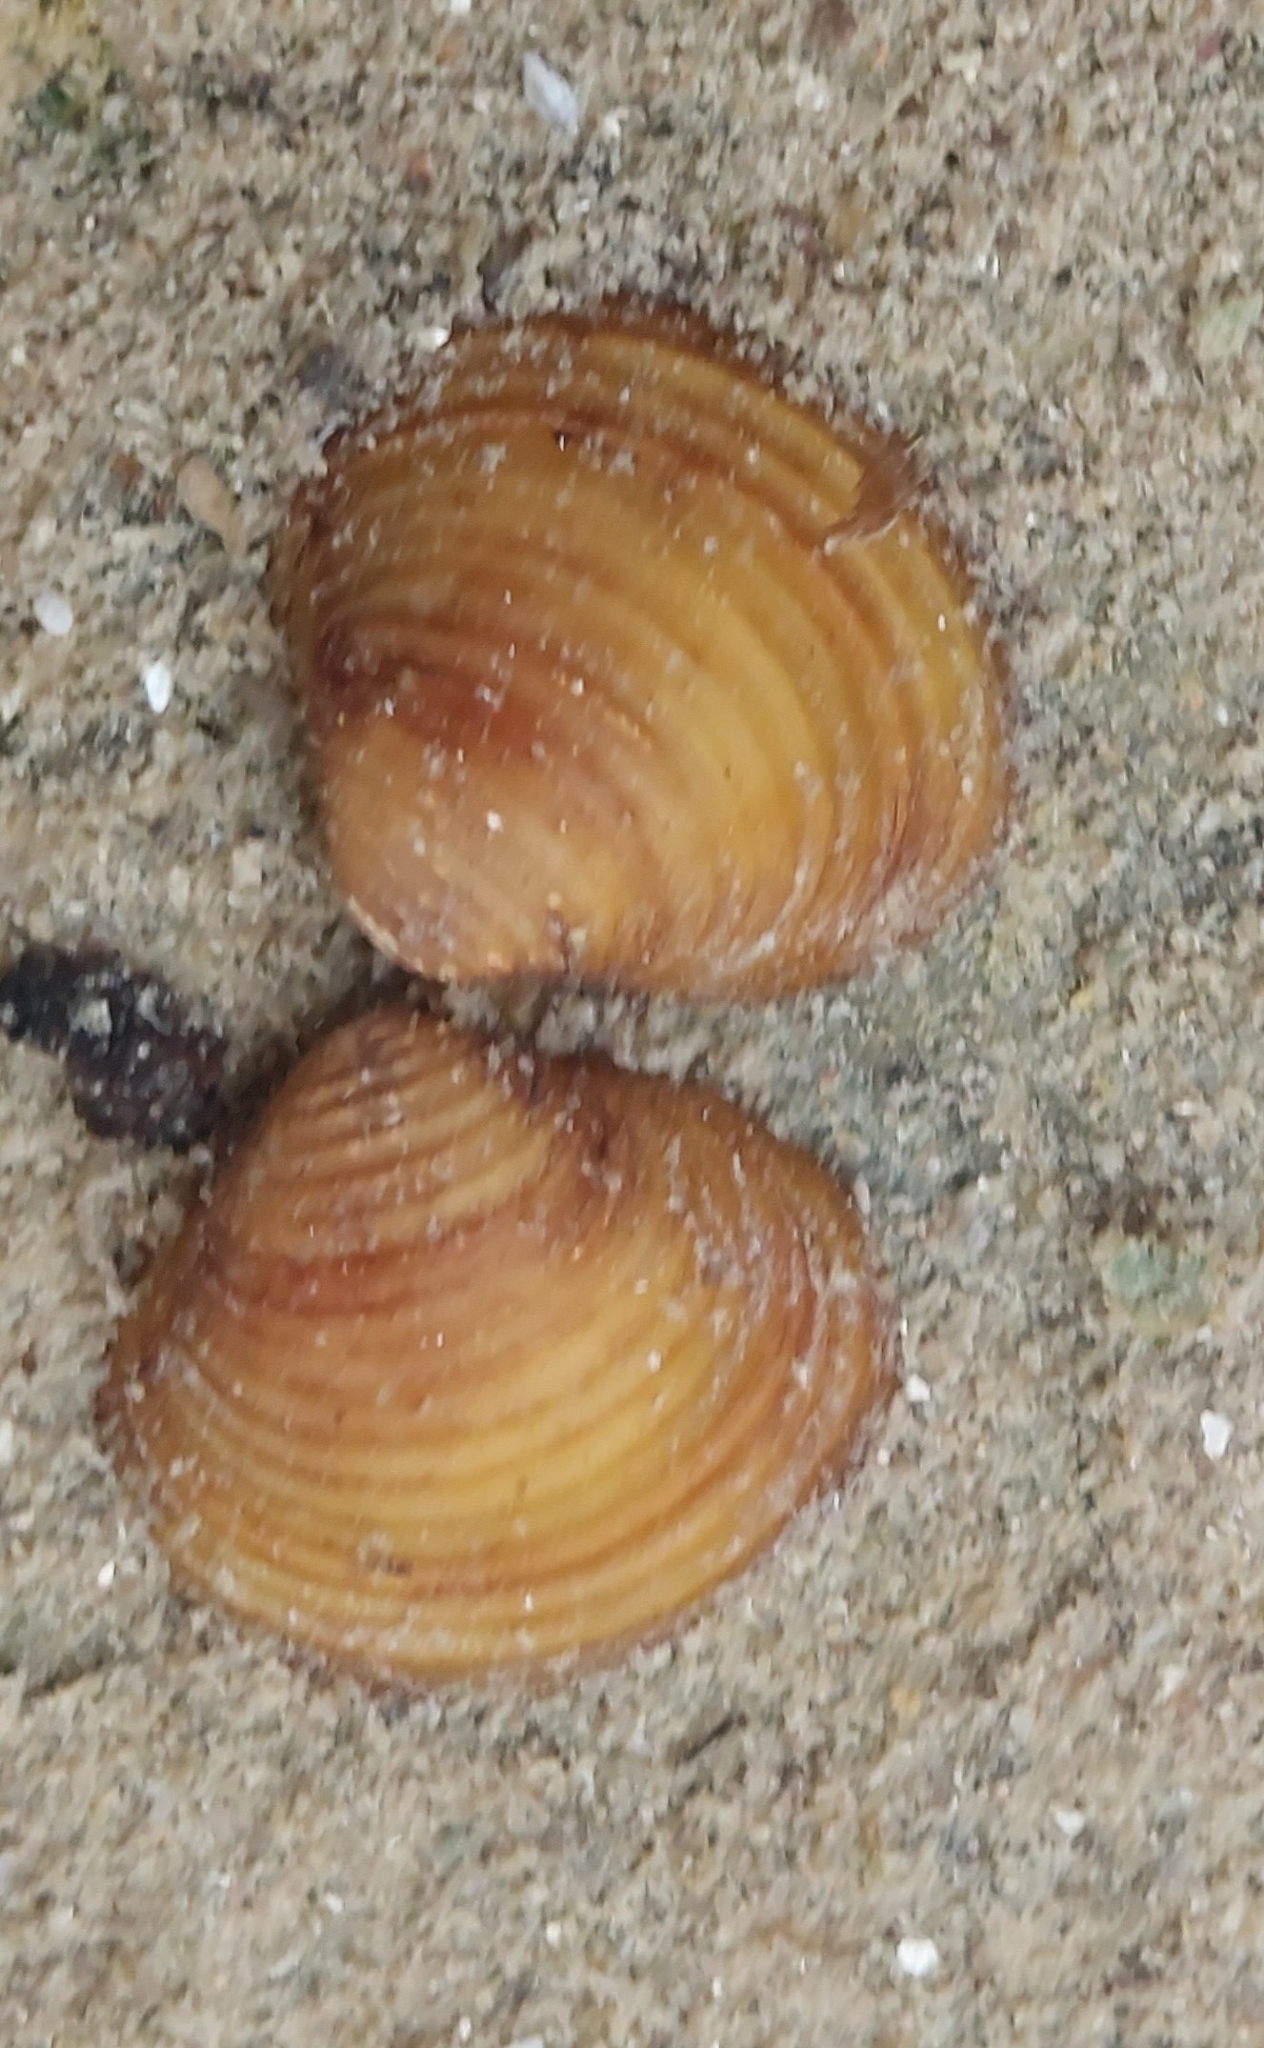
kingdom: Animalia
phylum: Mollusca
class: Bivalvia
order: Venerida
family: Cyrenidae
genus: Corbicula
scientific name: Corbicula fluminea
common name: Asian clam
